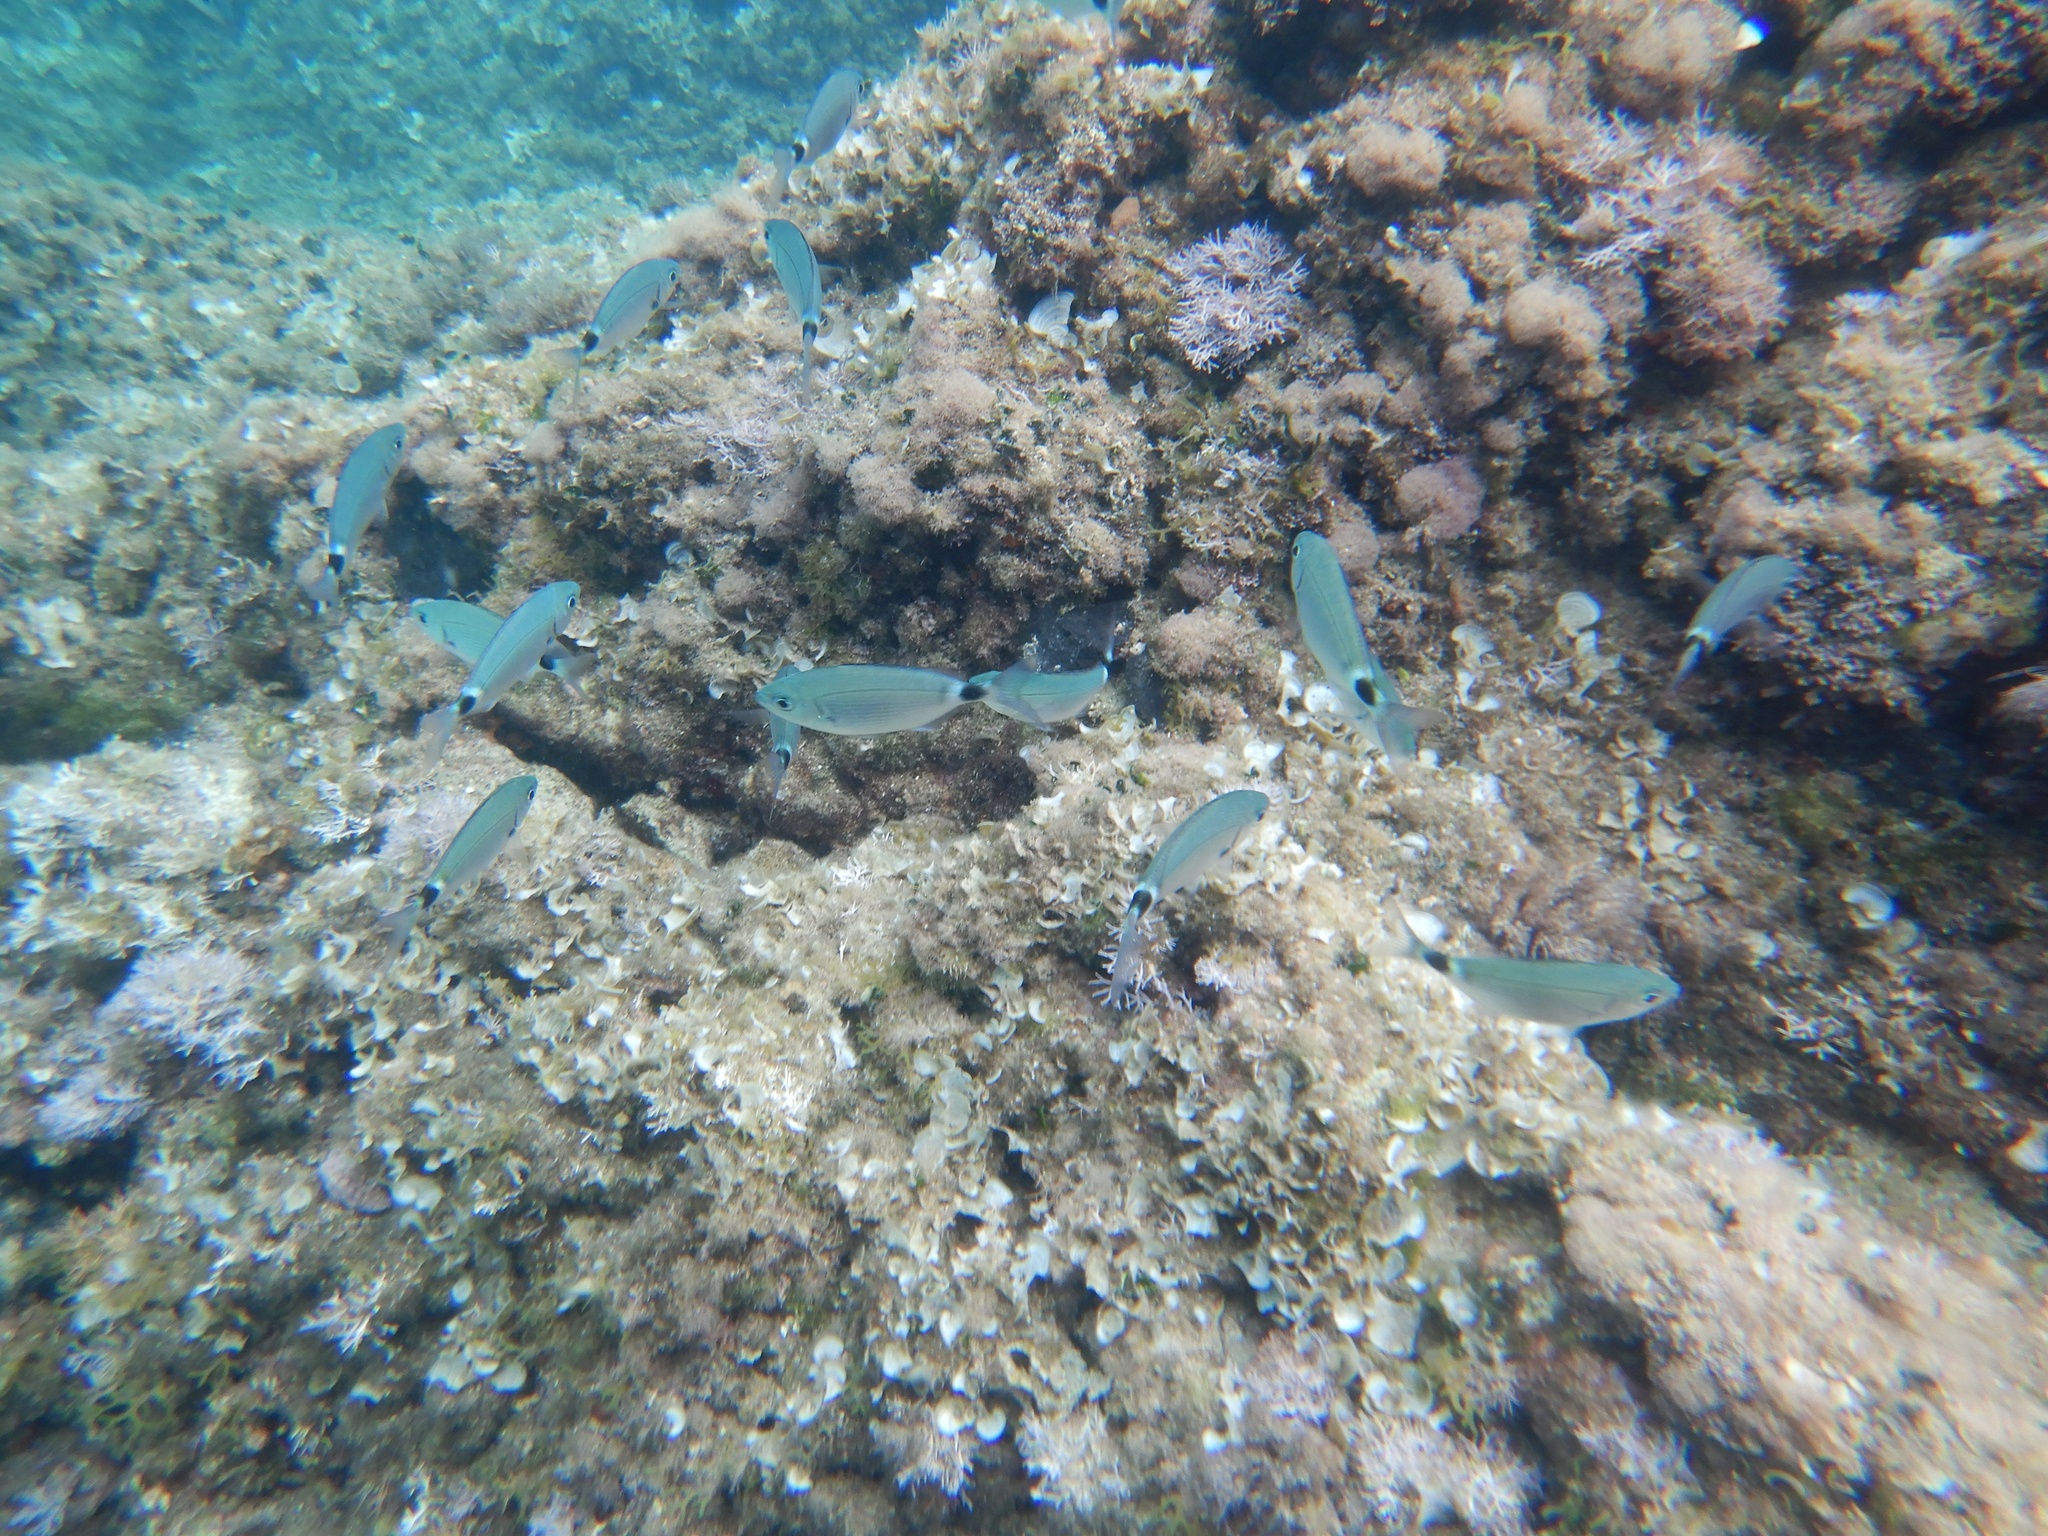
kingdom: Animalia
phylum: Chordata
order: Perciformes
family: Sparidae
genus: Oblada
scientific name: Oblada melanura
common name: Saddled seabream
